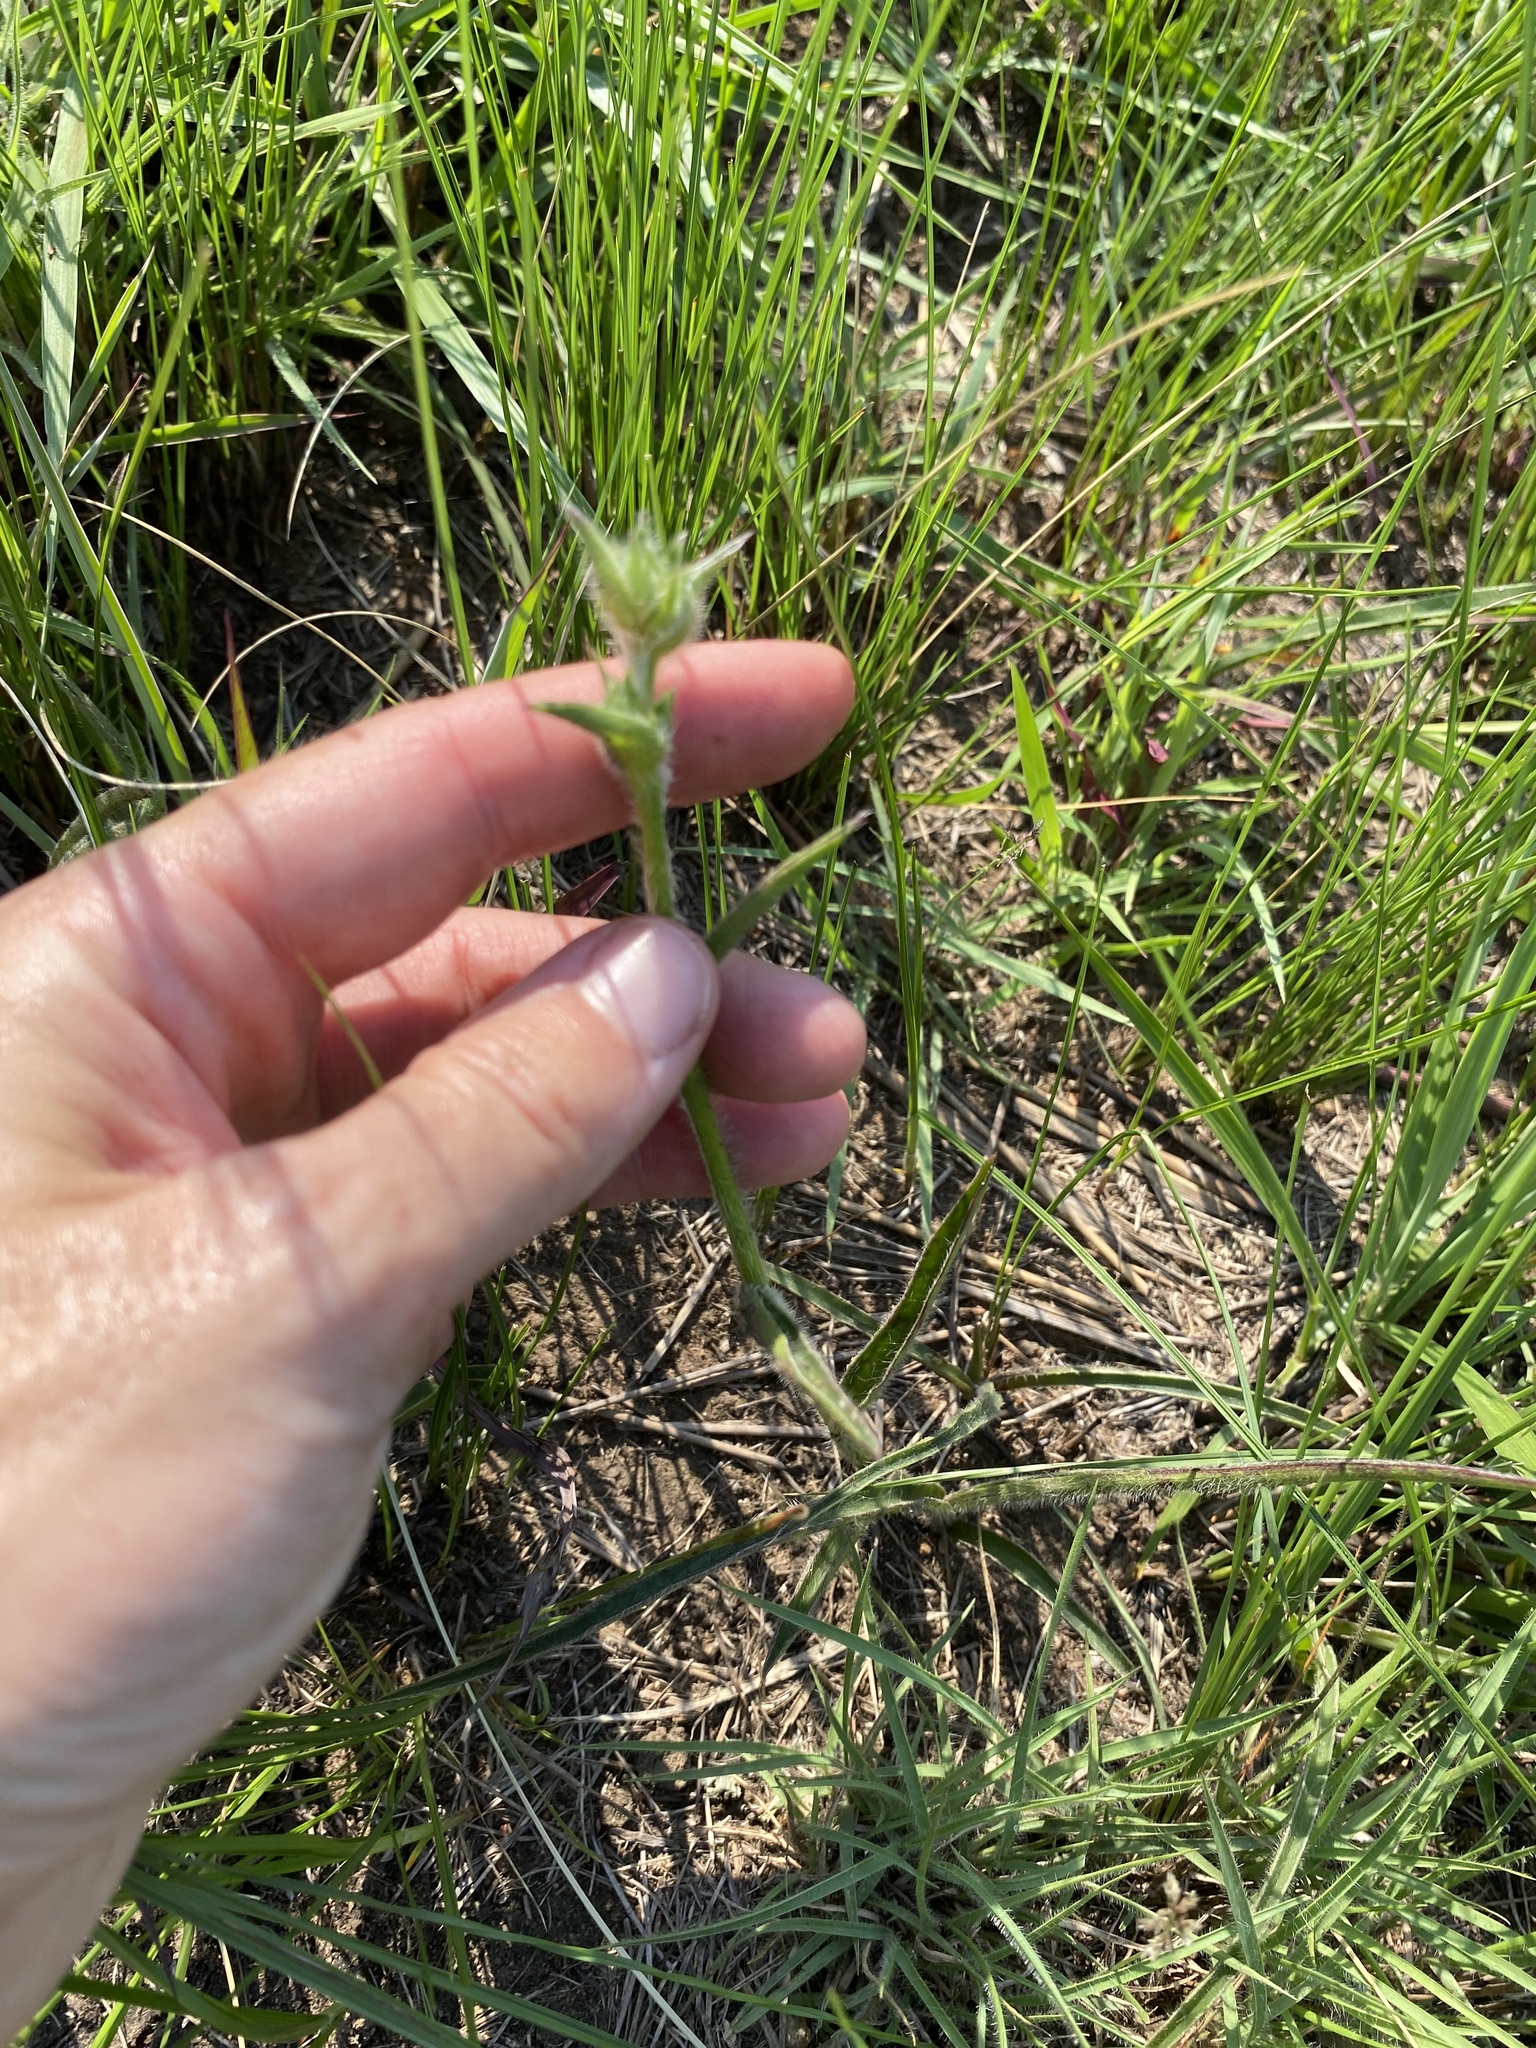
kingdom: Plantae
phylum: Tracheophyta
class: Liliopsida
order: Commelinales
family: Commelinaceae
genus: Cyanotis
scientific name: Cyanotis speciosa
